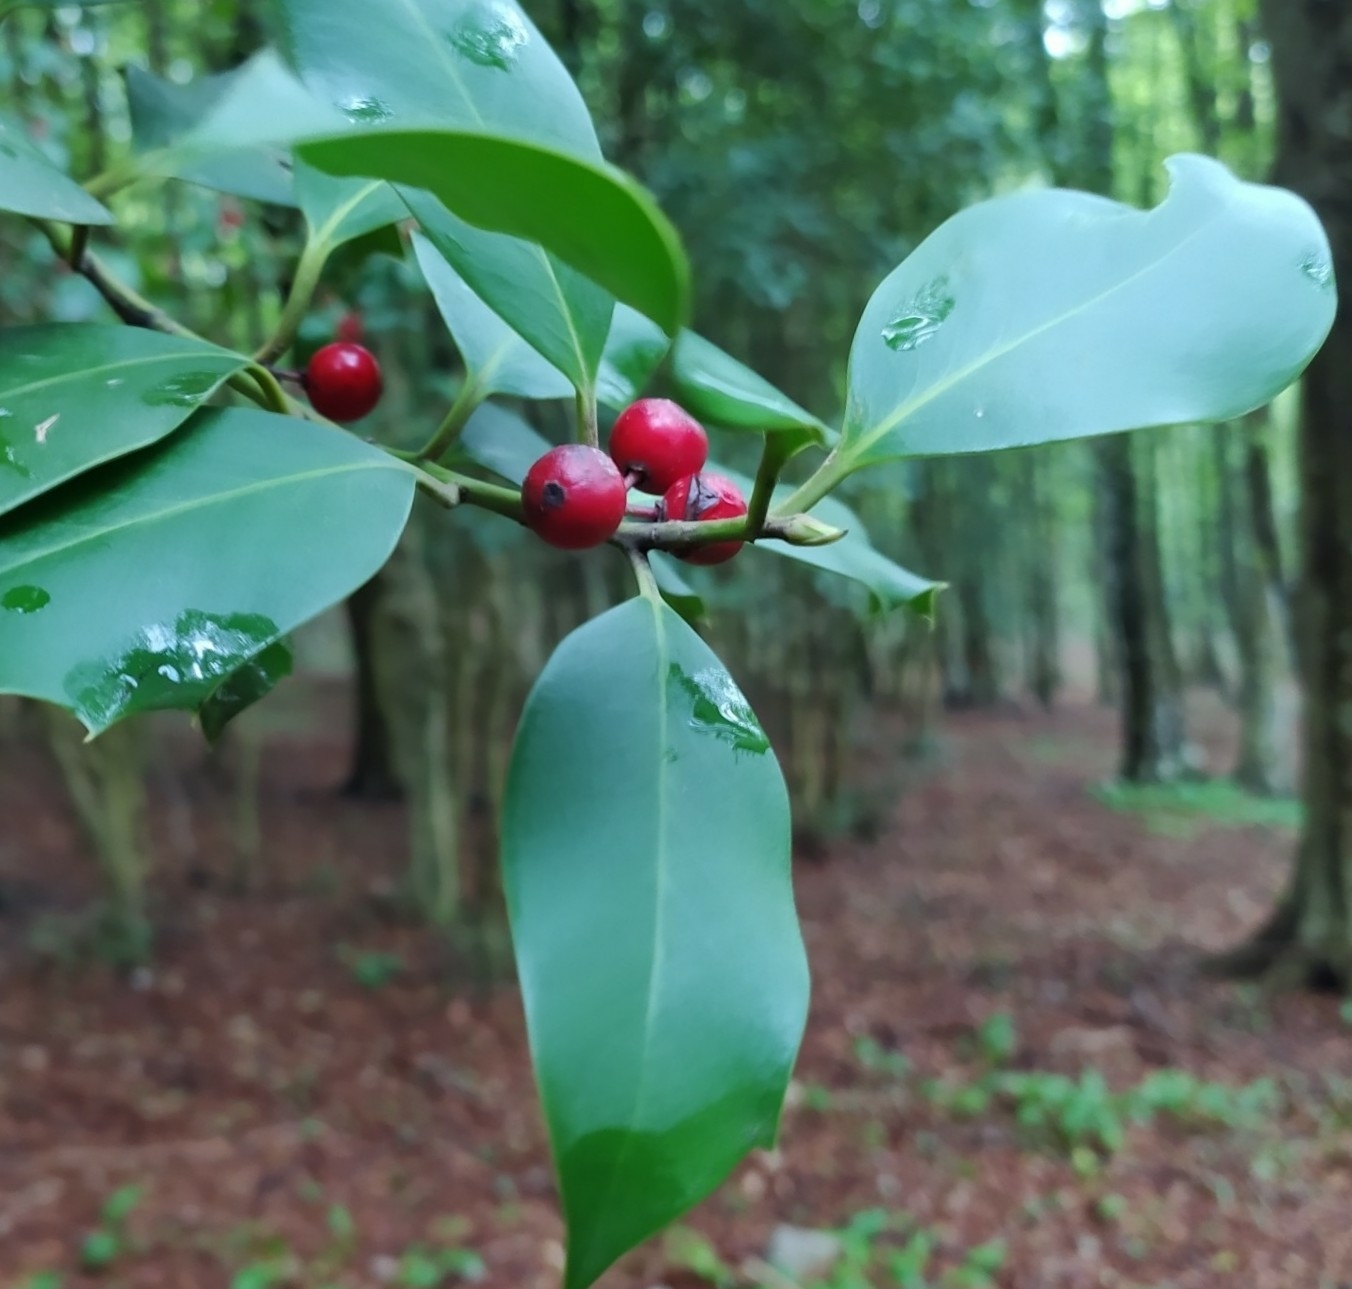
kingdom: Plantae
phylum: Tracheophyta
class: Magnoliopsida
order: Aquifoliales
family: Aquifoliaceae
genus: Ilex
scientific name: Ilex aquifolium
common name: English holly
